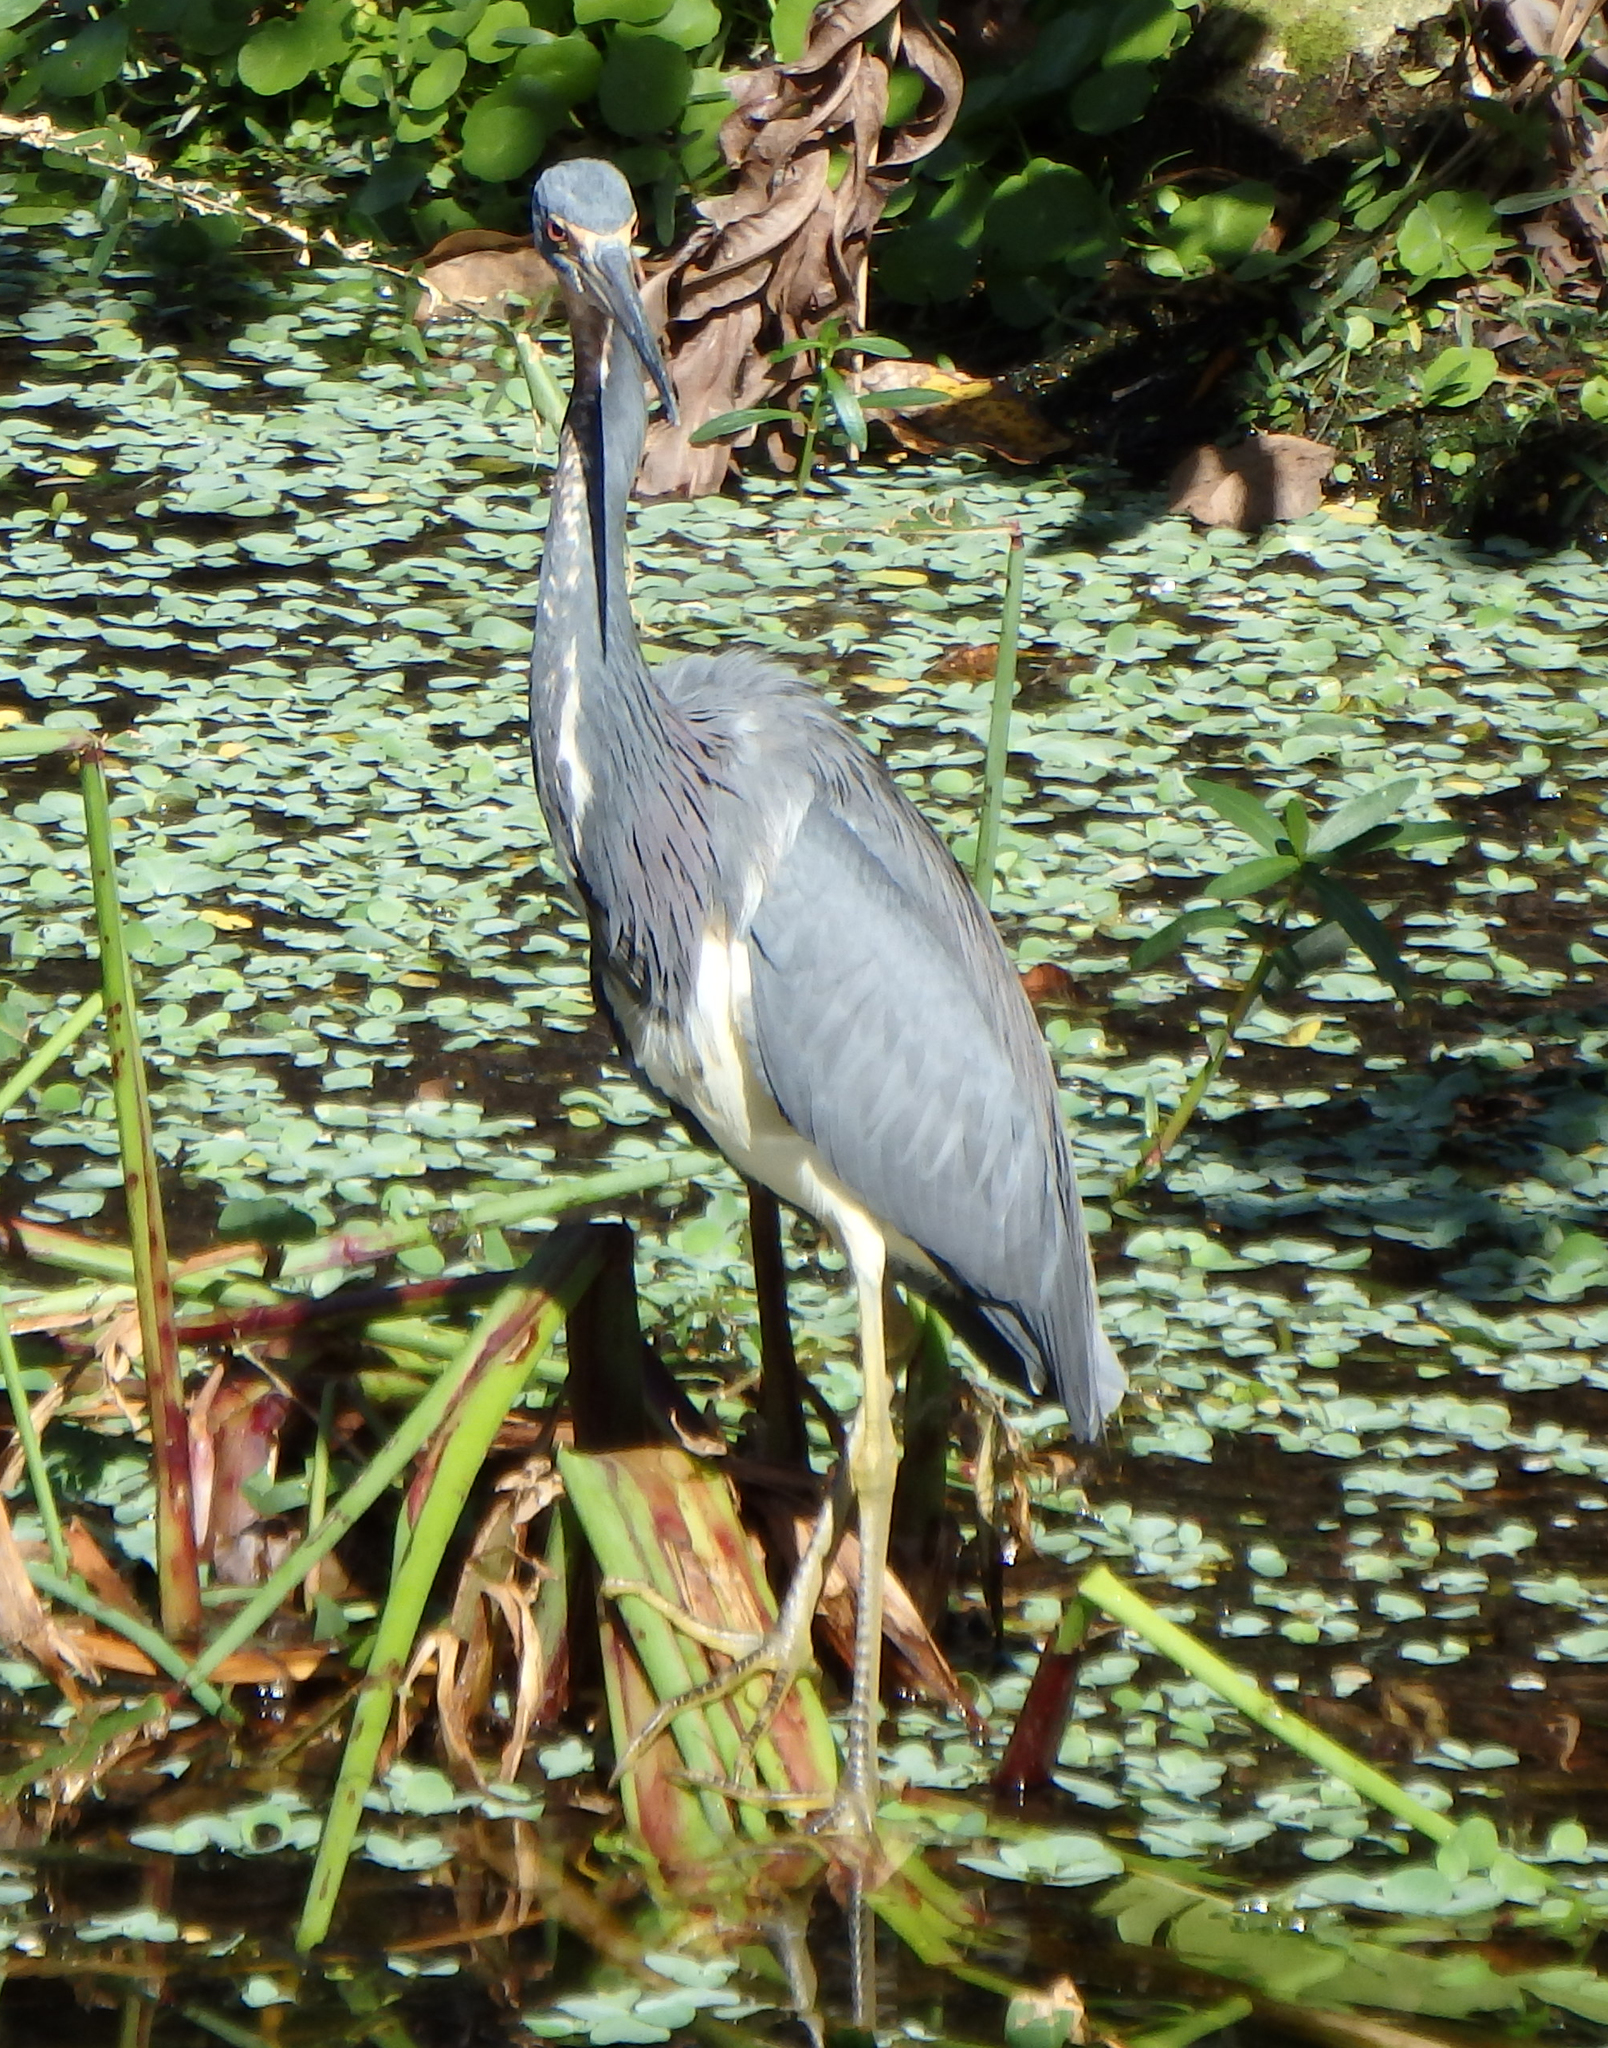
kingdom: Animalia
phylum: Chordata
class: Aves
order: Pelecaniformes
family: Ardeidae
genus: Egretta
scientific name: Egretta tricolor
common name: Tricolored heron
